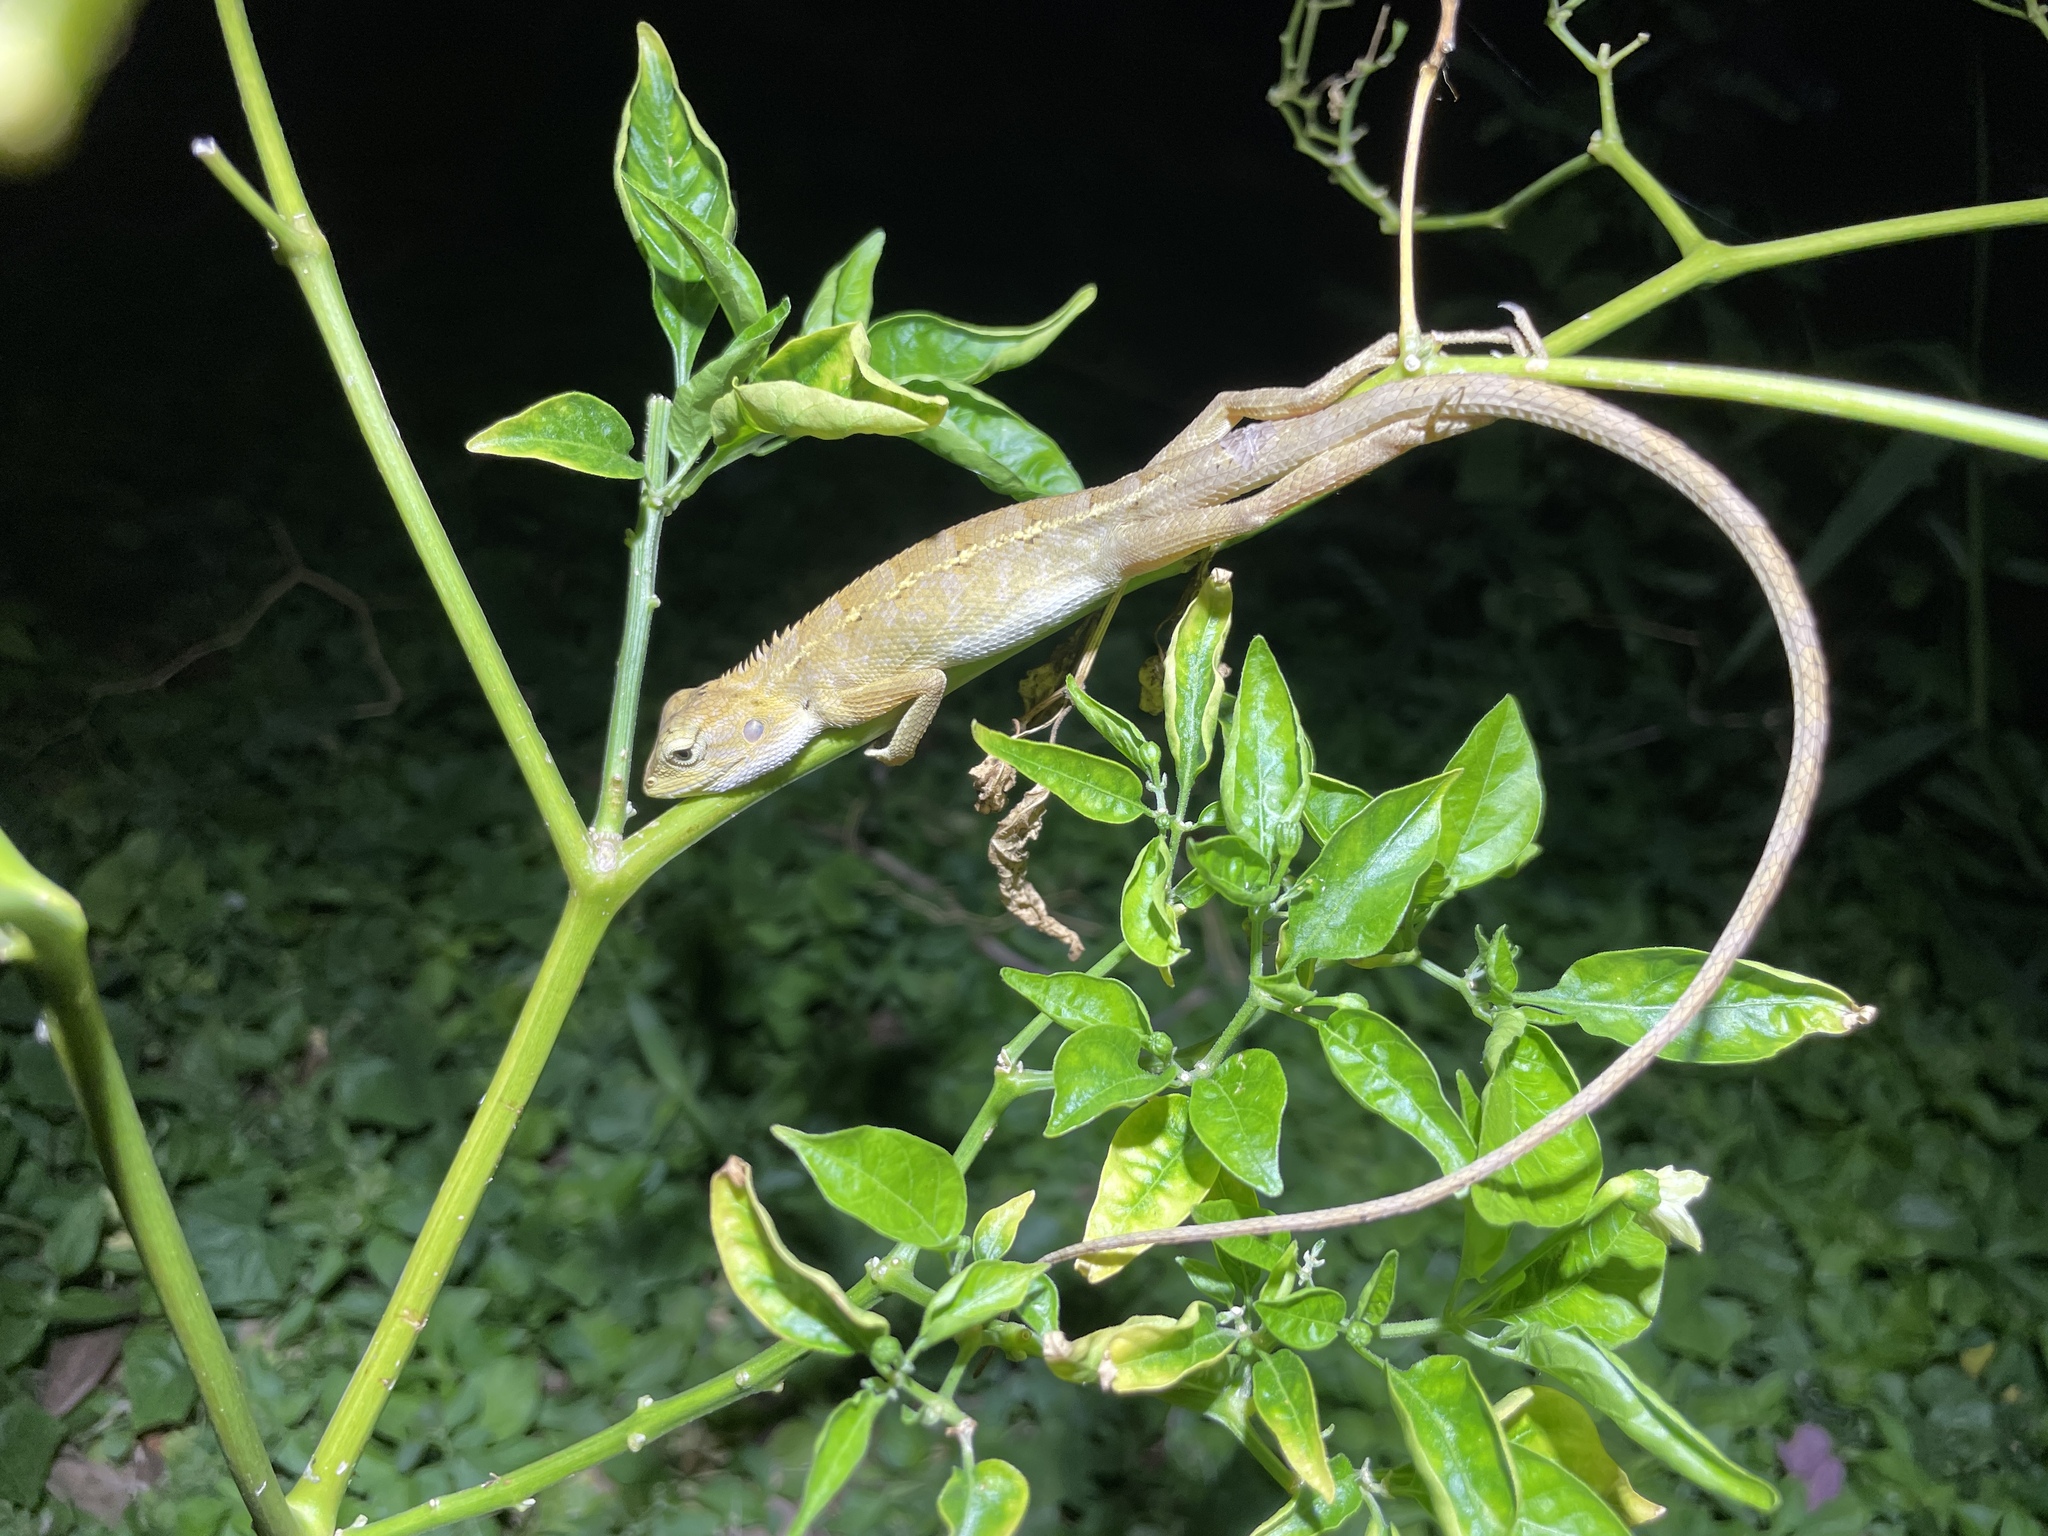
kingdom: Animalia
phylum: Chordata
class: Squamata
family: Agamidae
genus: Calotes
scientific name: Calotes versicolor
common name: Oriental garden lizard
